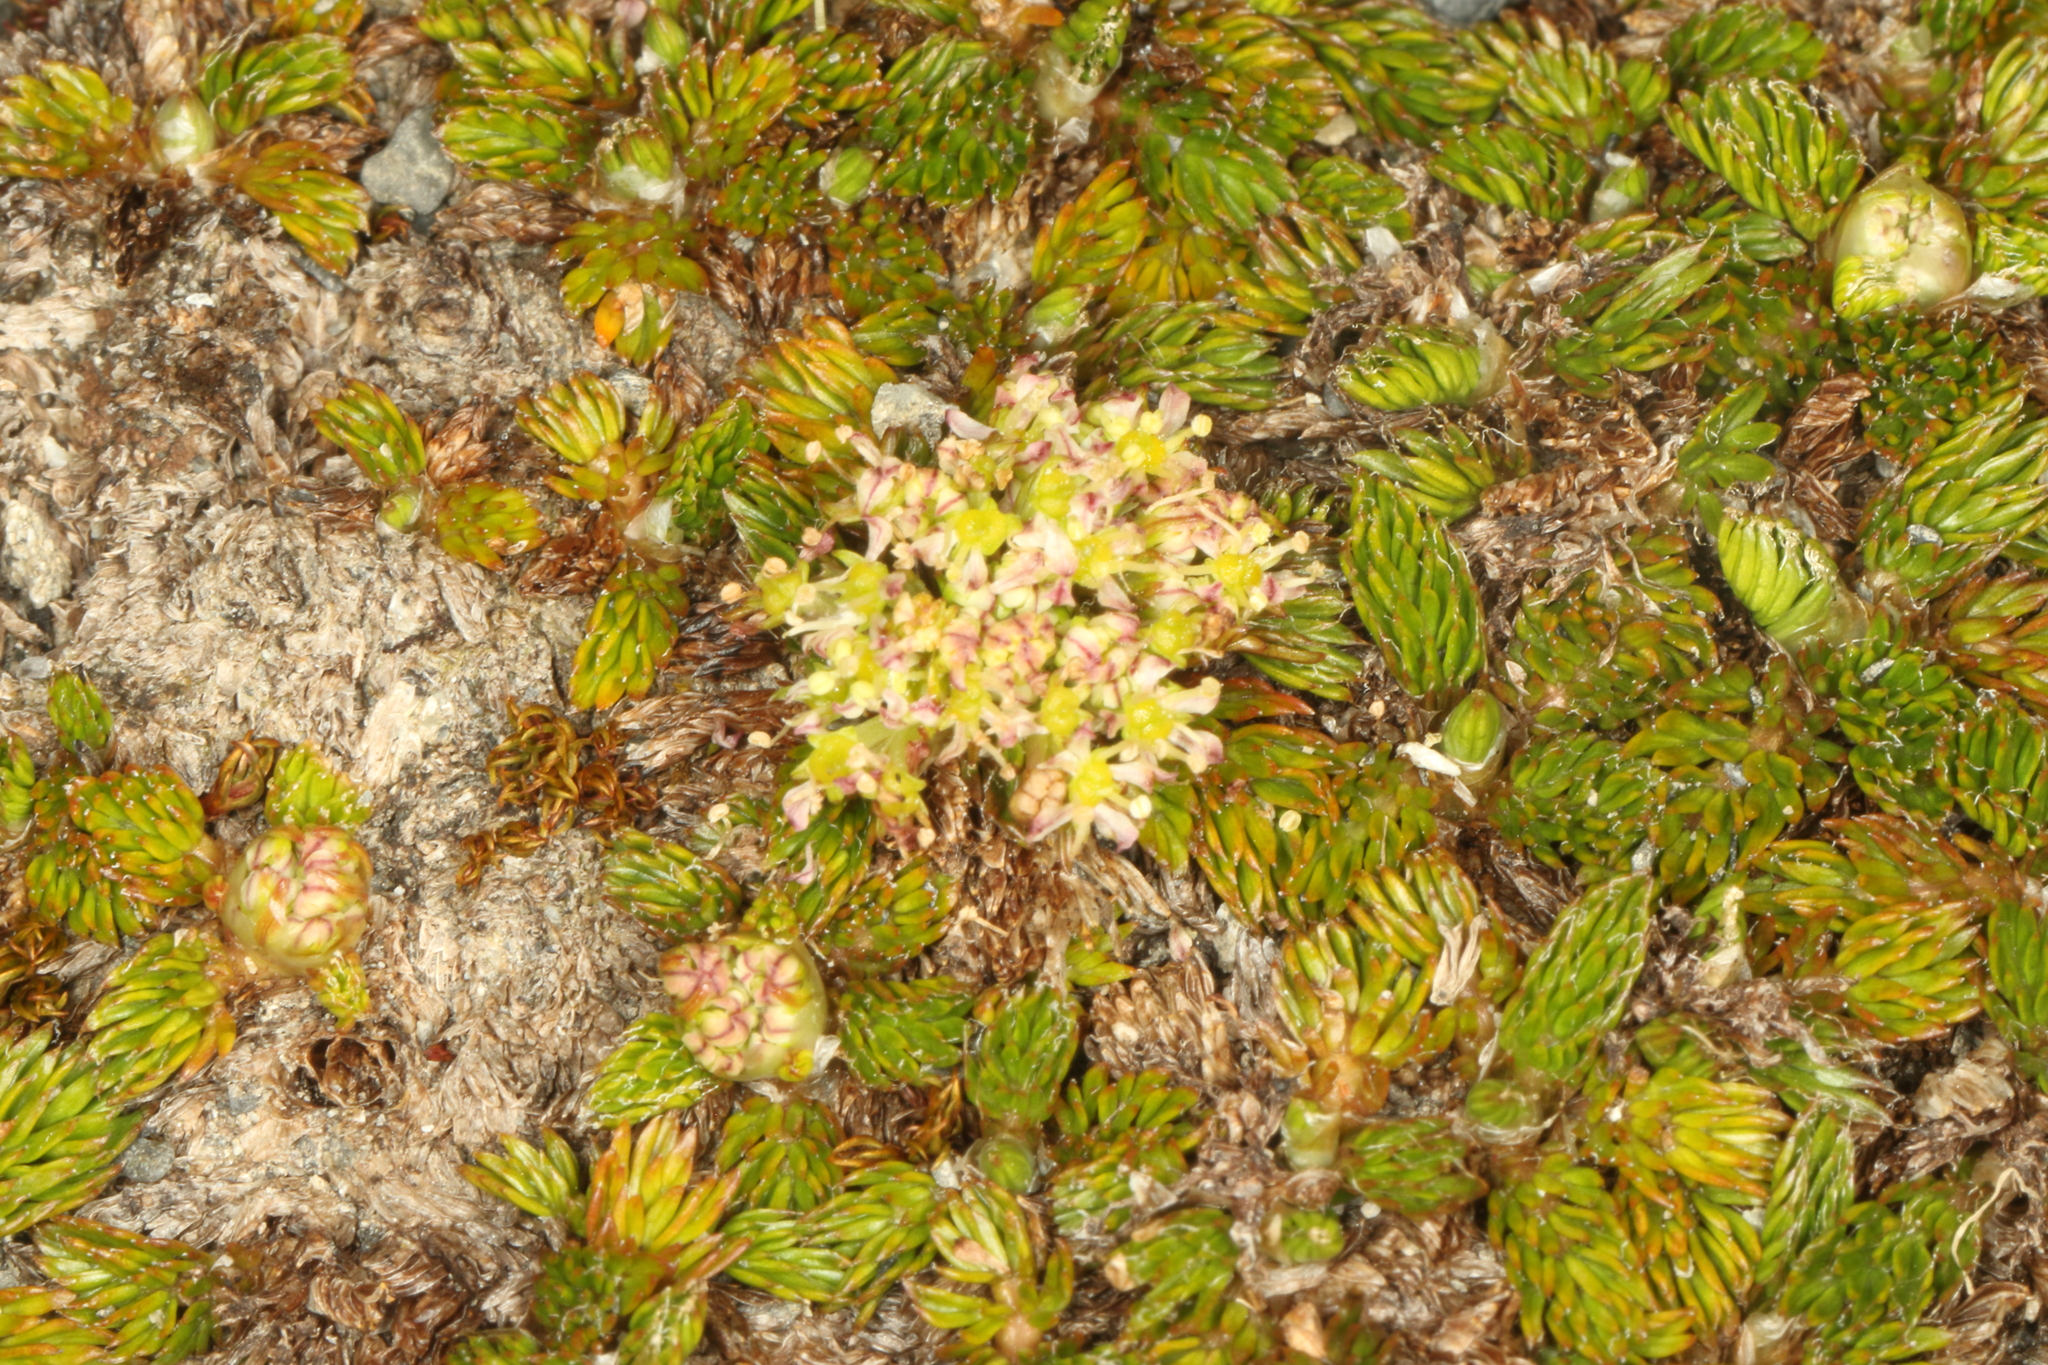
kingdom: Plantae
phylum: Tracheophyta
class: Magnoliopsida
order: Apiales
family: Apiaceae
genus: Anisotome
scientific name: Anisotome imbricata
